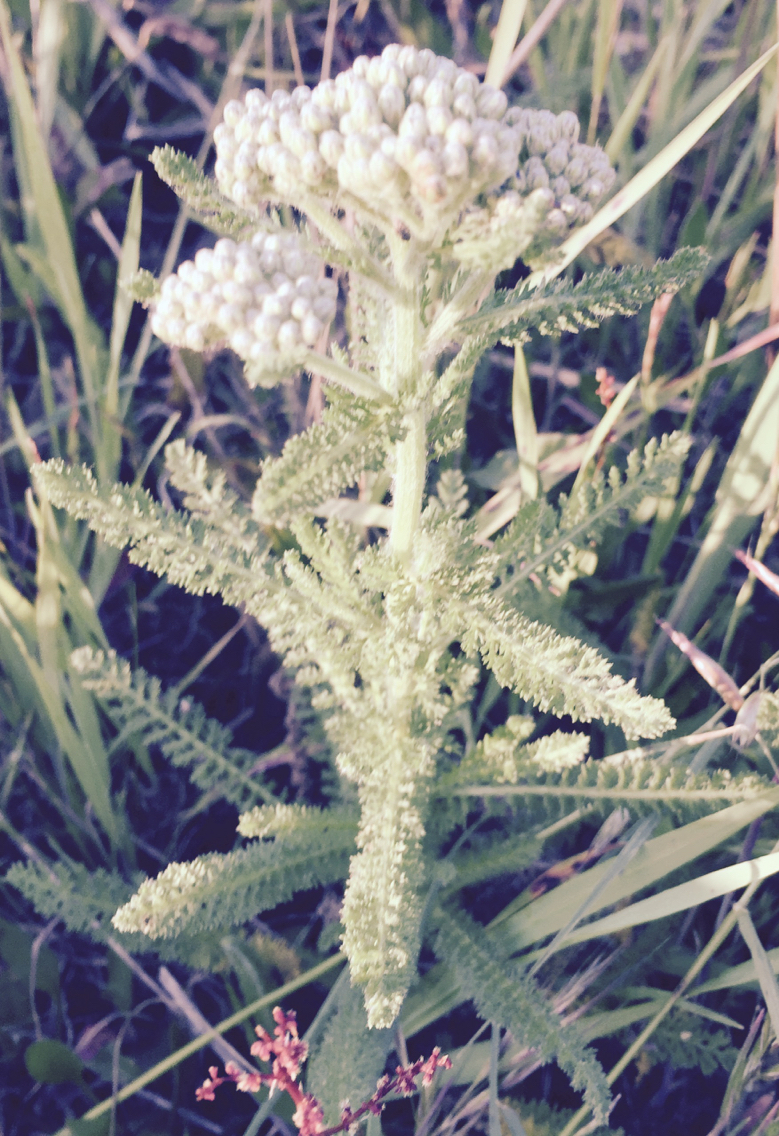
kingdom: Plantae
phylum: Tracheophyta
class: Magnoliopsida
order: Asterales
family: Asteraceae
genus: Achillea
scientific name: Achillea millefolium
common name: Yarrow
